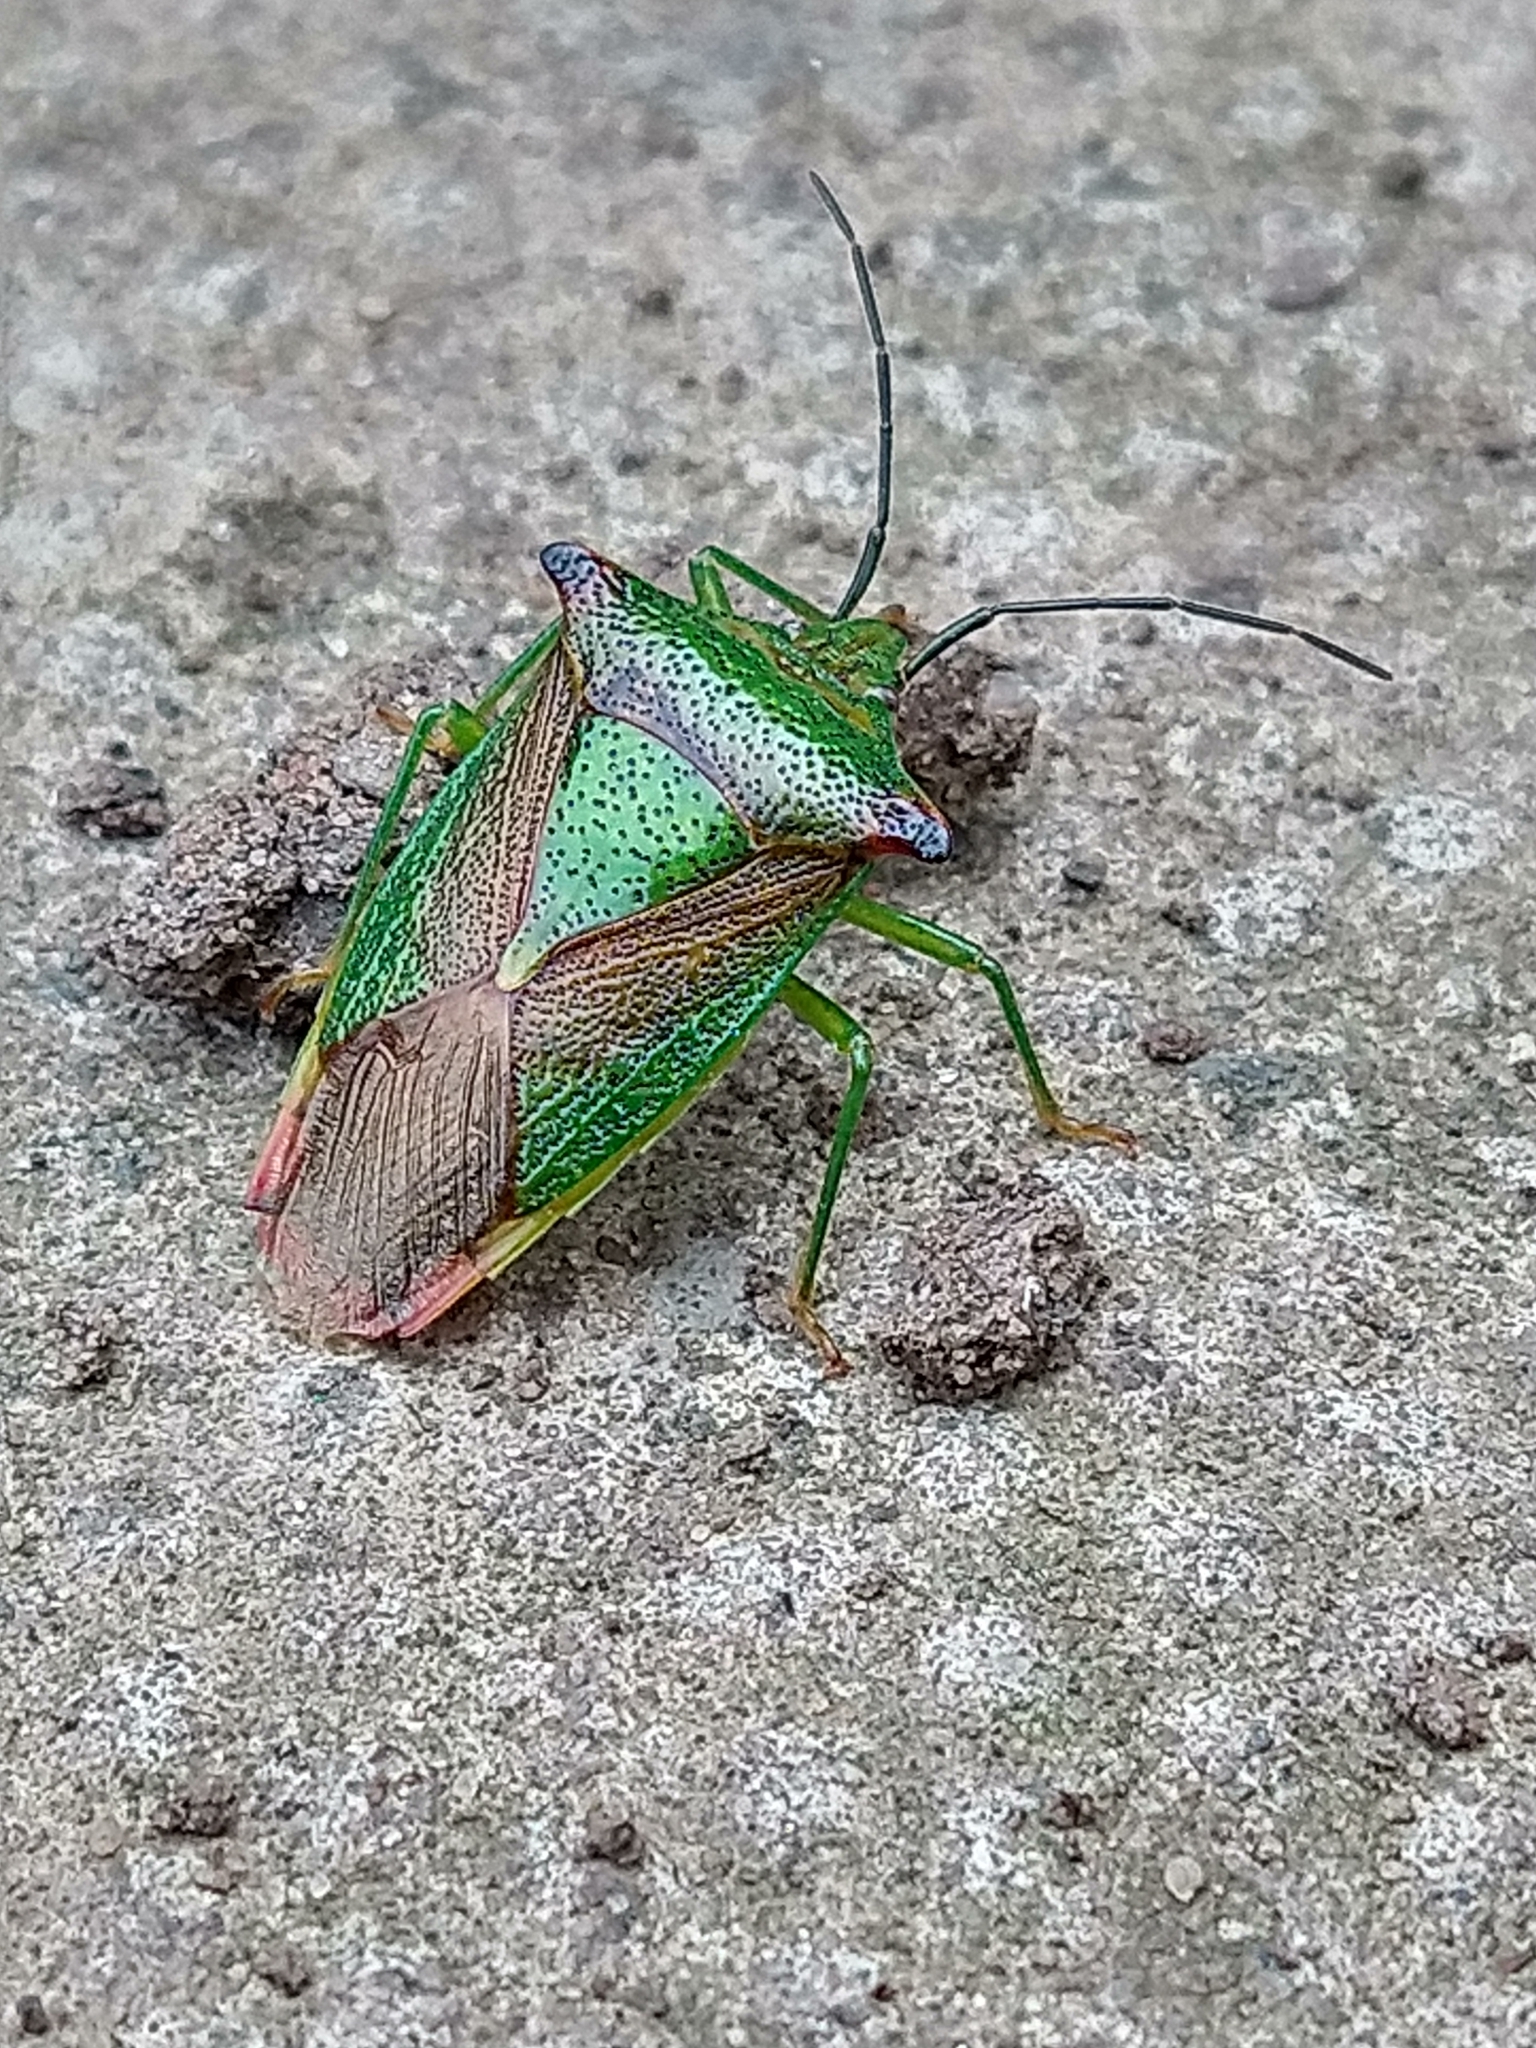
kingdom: Animalia
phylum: Arthropoda
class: Insecta
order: Hemiptera
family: Acanthosomatidae
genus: Acanthosoma
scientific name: Acanthosoma haemorrhoidale
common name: Hawthorn shieldbug
